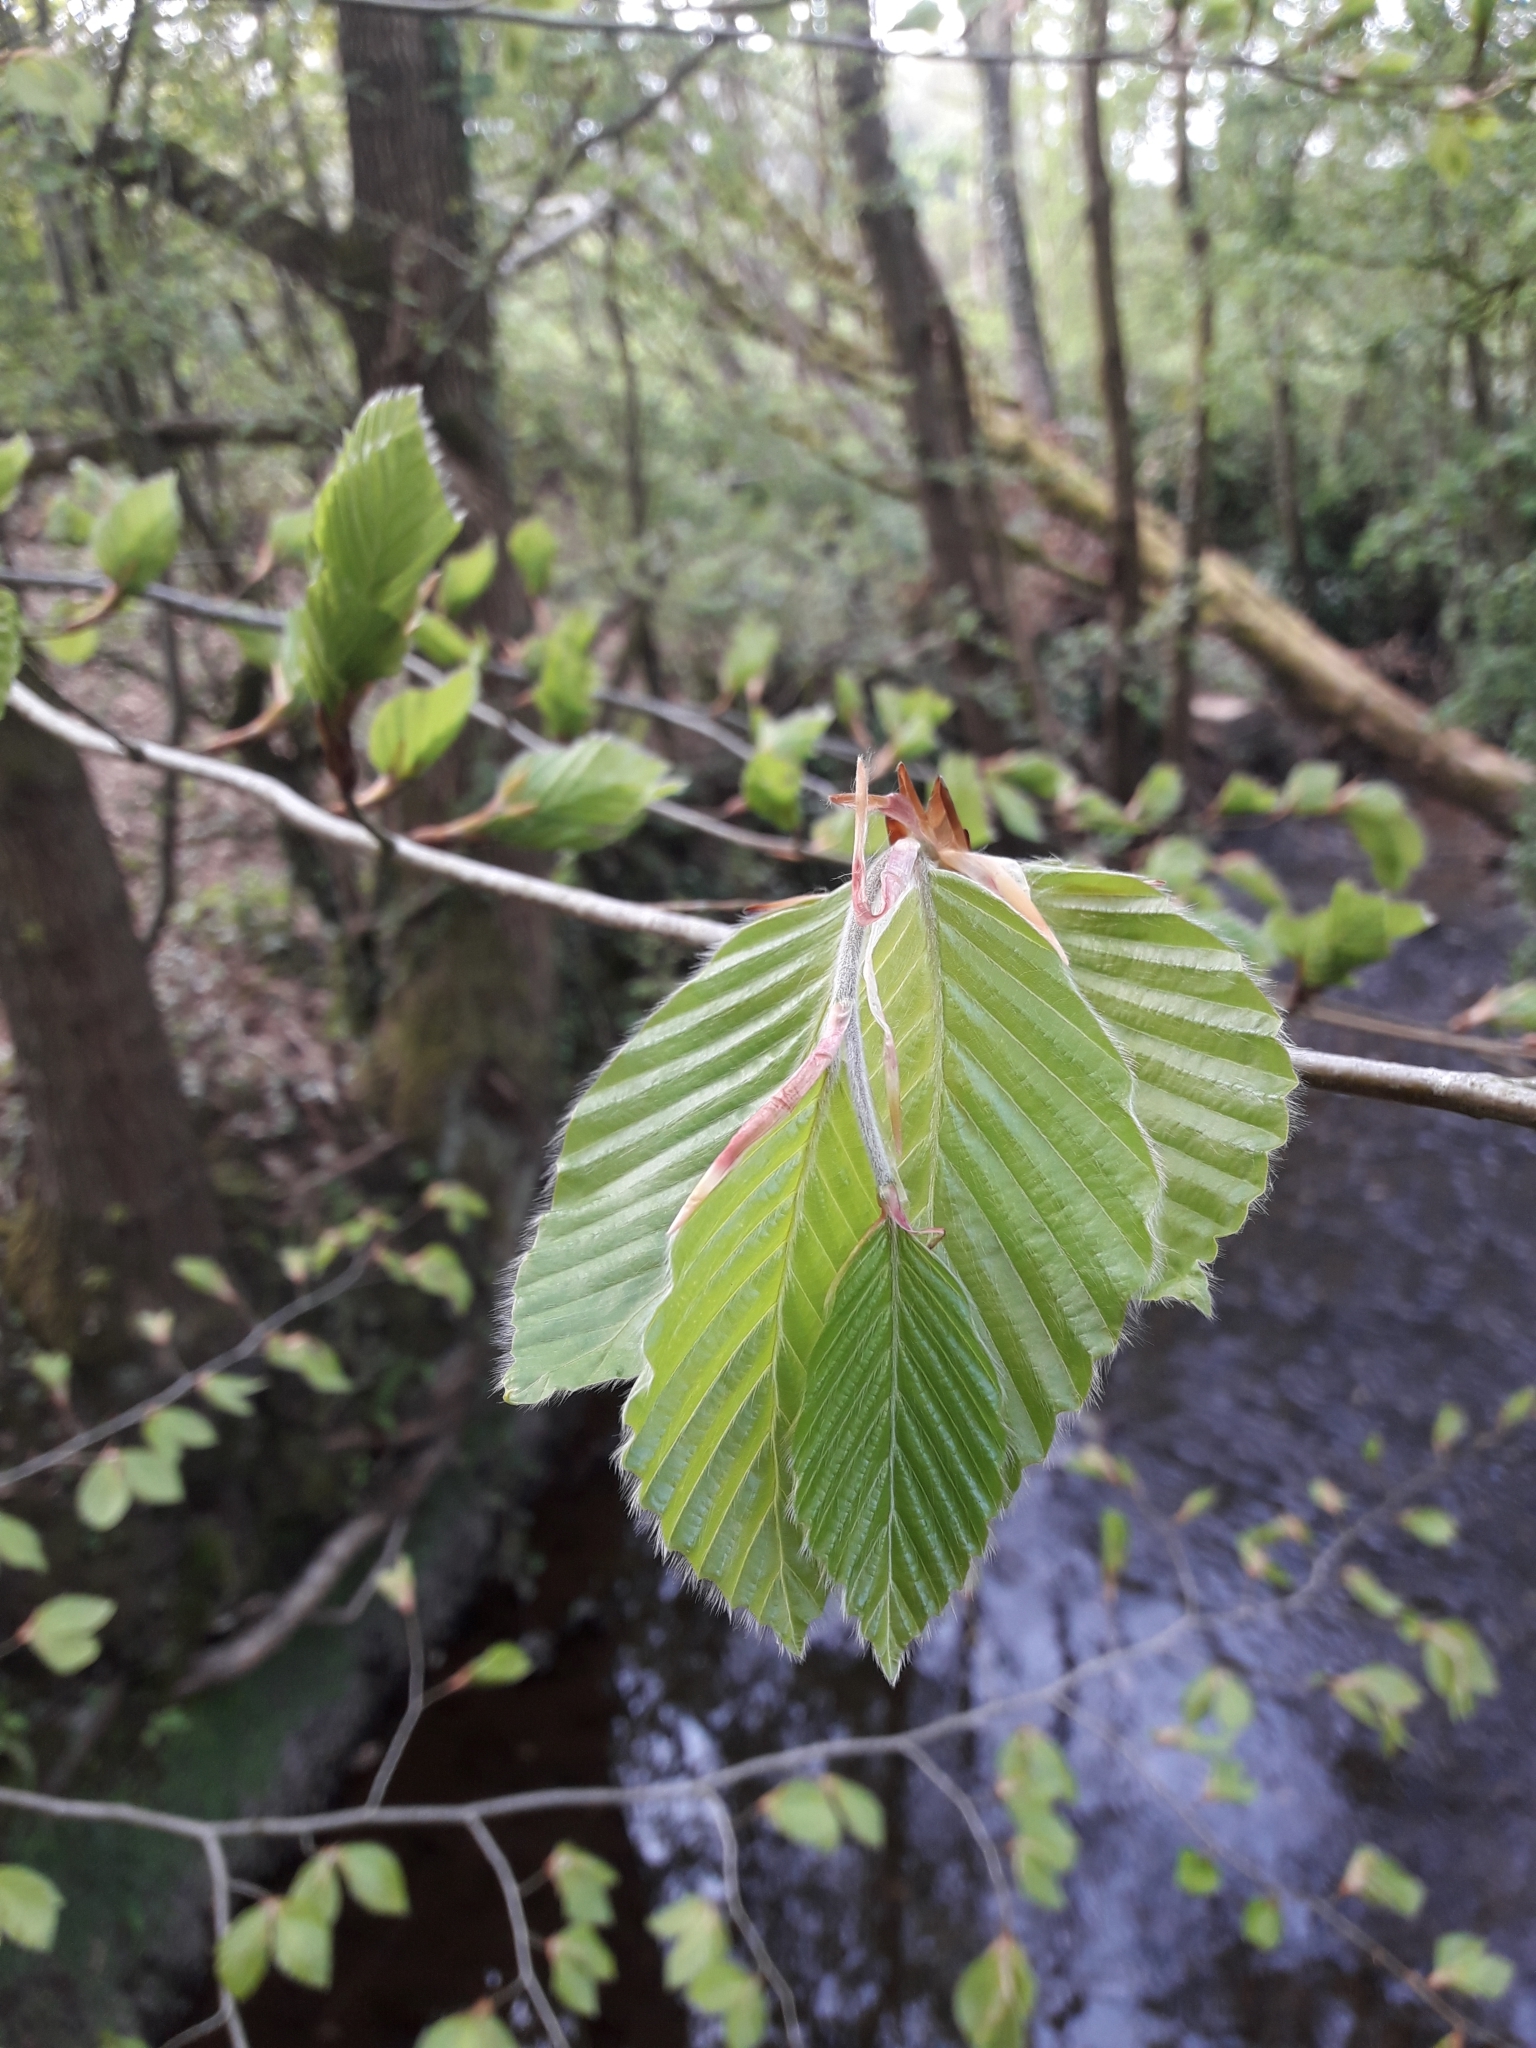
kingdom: Plantae
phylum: Tracheophyta
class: Magnoliopsida
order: Fagales
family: Fagaceae
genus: Fagus
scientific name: Fagus sylvatica
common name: Beech
